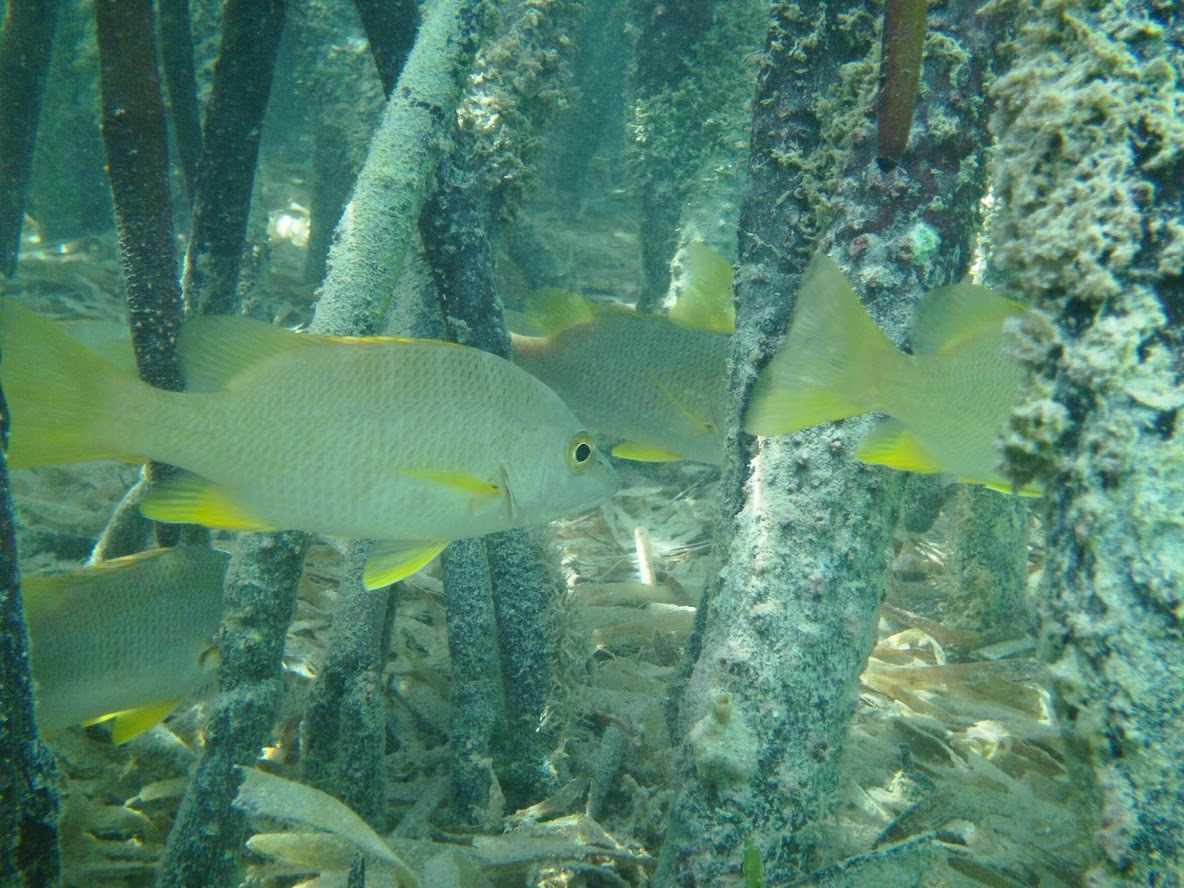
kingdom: Animalia
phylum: Chordata
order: Perciformes
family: Lutjanidae
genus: Lutjanus
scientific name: Lutjanus apodus
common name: Schoolmaster
